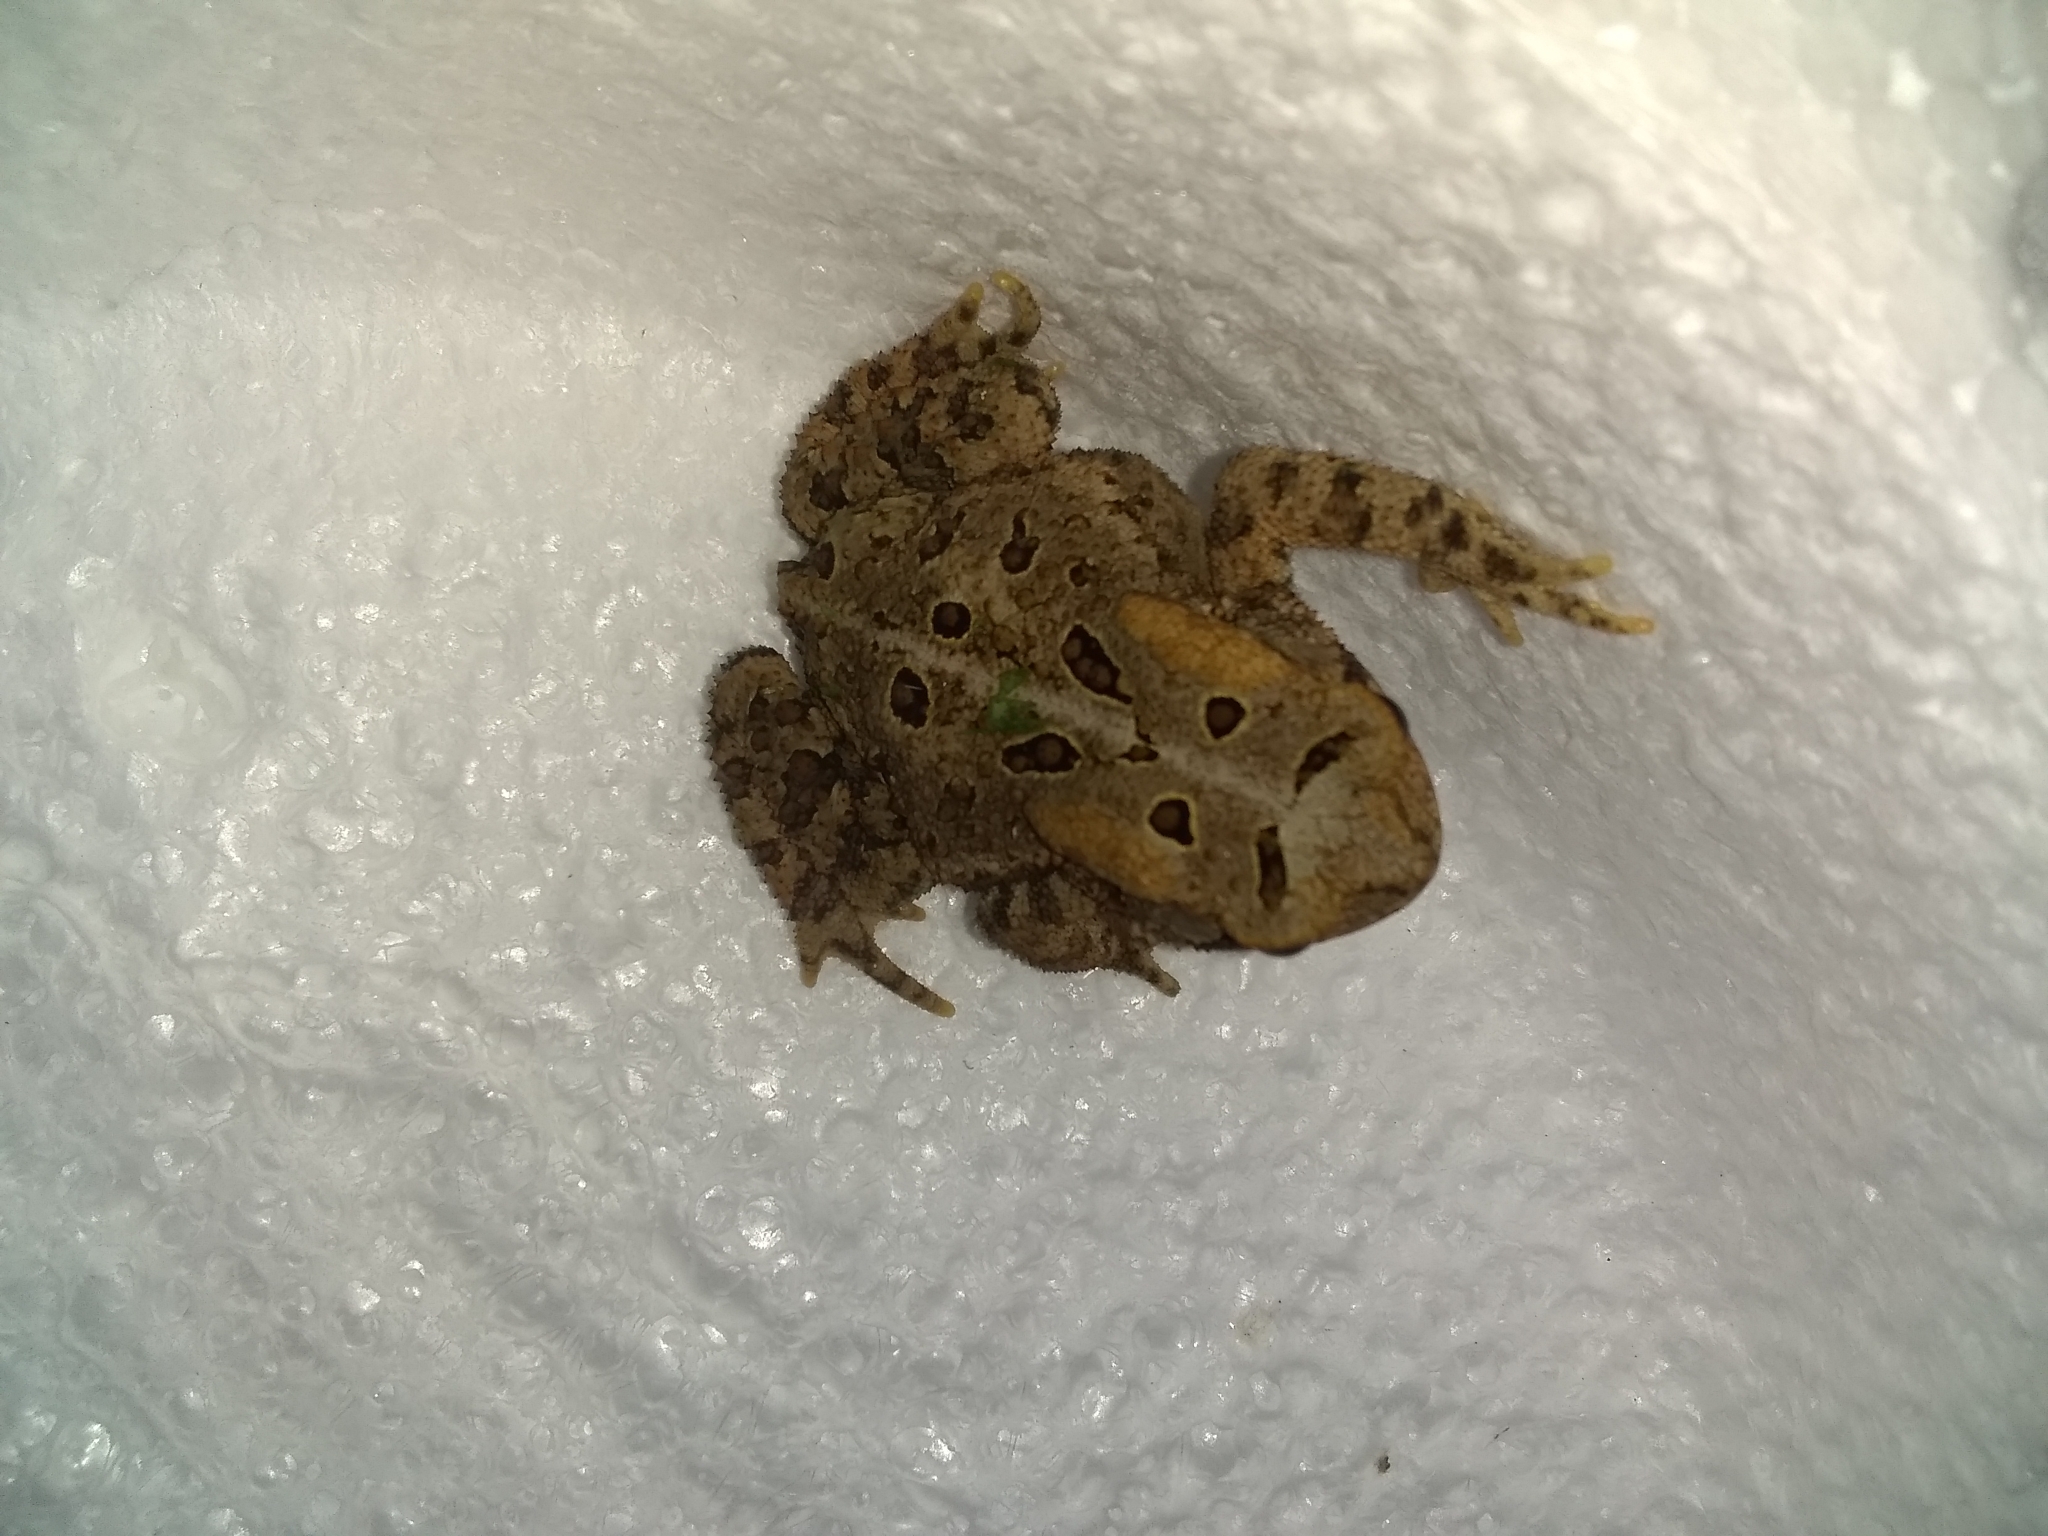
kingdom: Animalia
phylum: Chordata
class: Amphibia
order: Anura
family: Bufonidae
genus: Anaxyrus
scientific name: Anaxyrus americanus
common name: American toad
